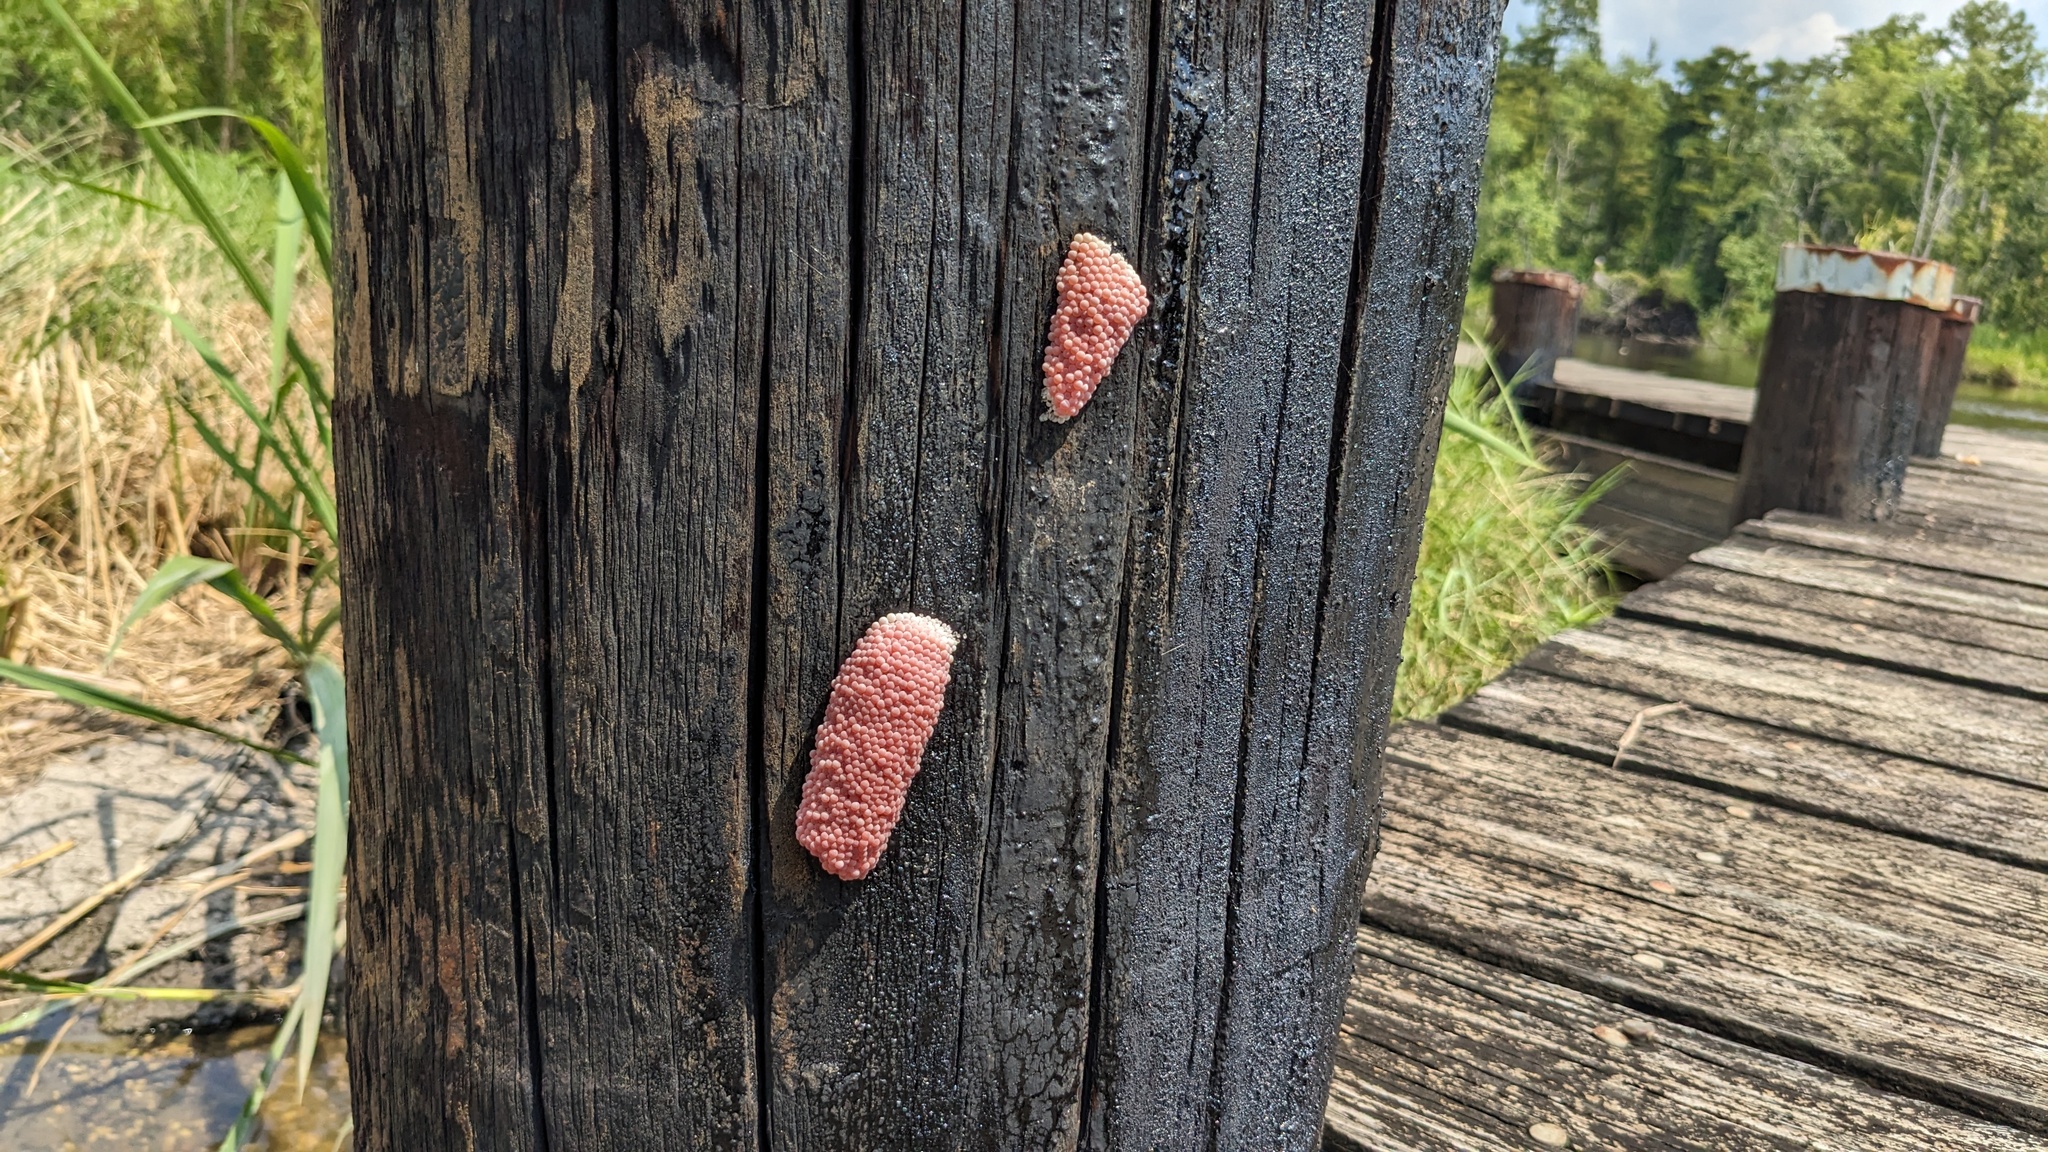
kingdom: Animalia
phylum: Mollusca
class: Gastropoda
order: Architaenioglossa
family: Ampullariidae
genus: Pomacea
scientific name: Pomacea maculata
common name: Giant applesnail
